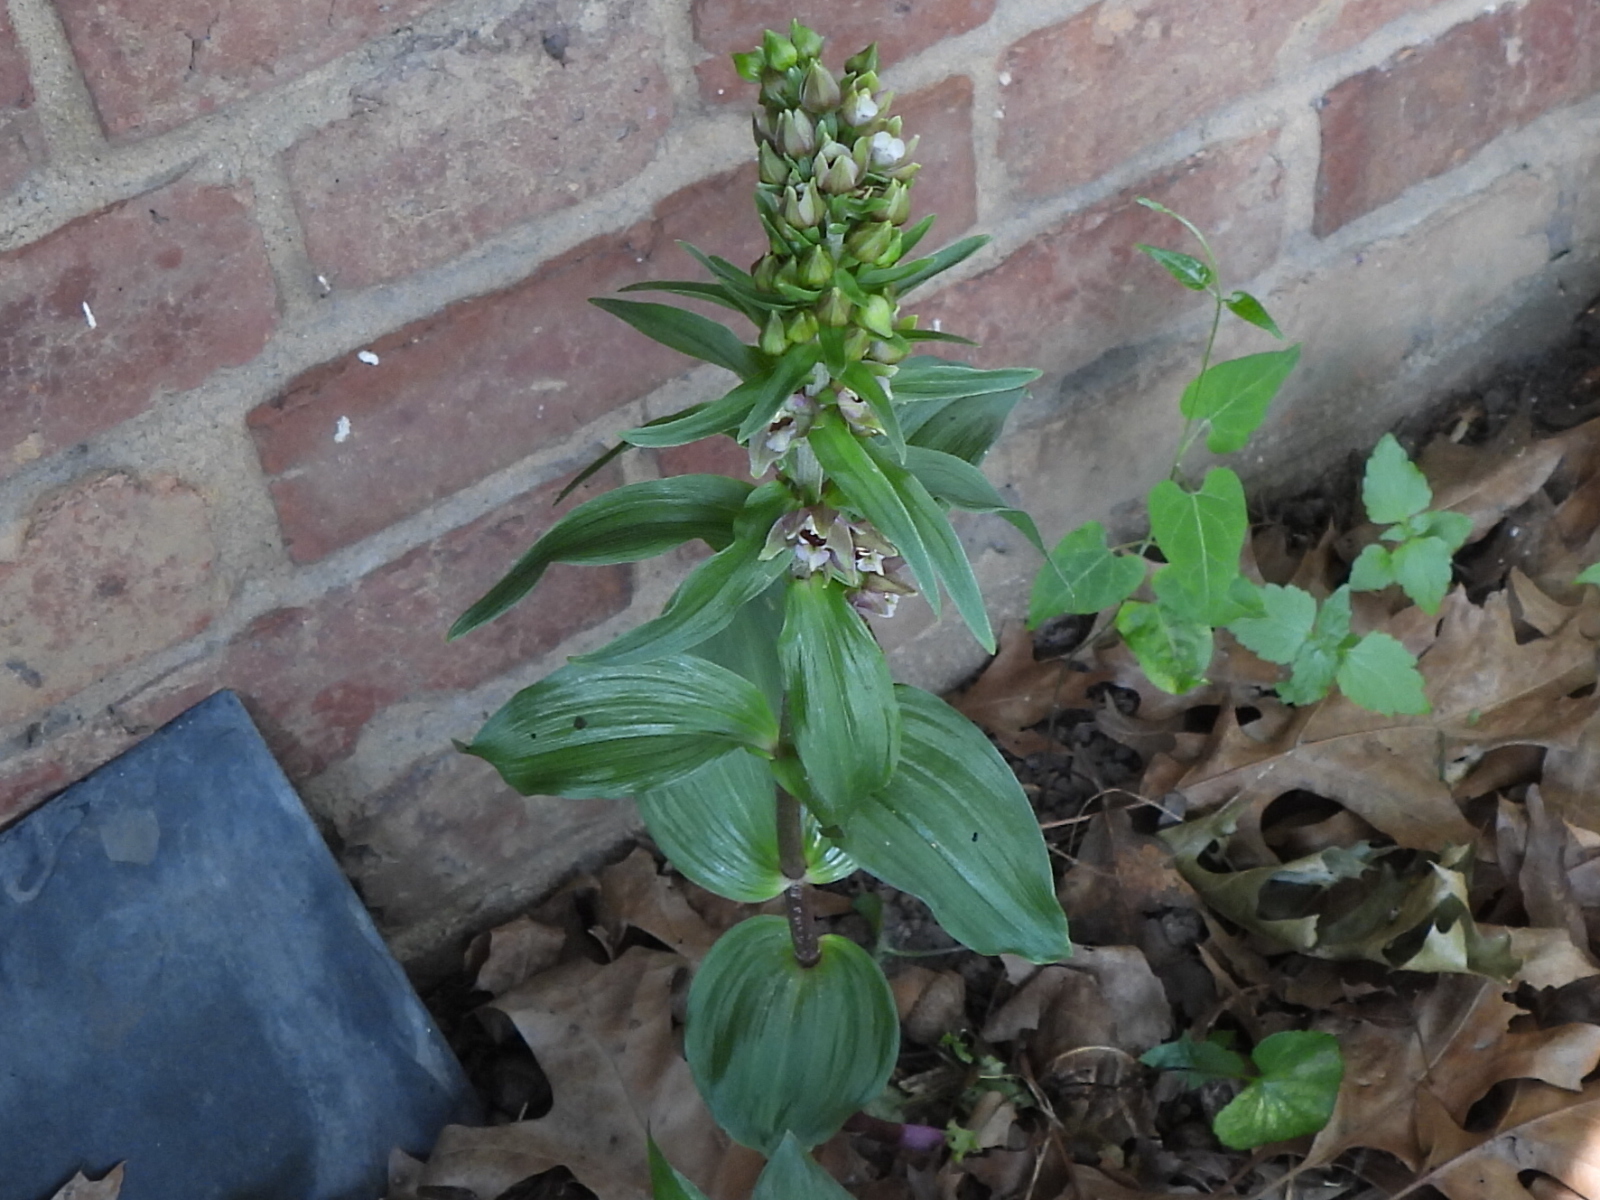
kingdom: Plantae
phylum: Tracheophyta
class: Liliopsida
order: Asparagales
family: Orchidaceae
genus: Epipactis
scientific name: Epipactis helleborine
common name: Broad-leaved helleborine
